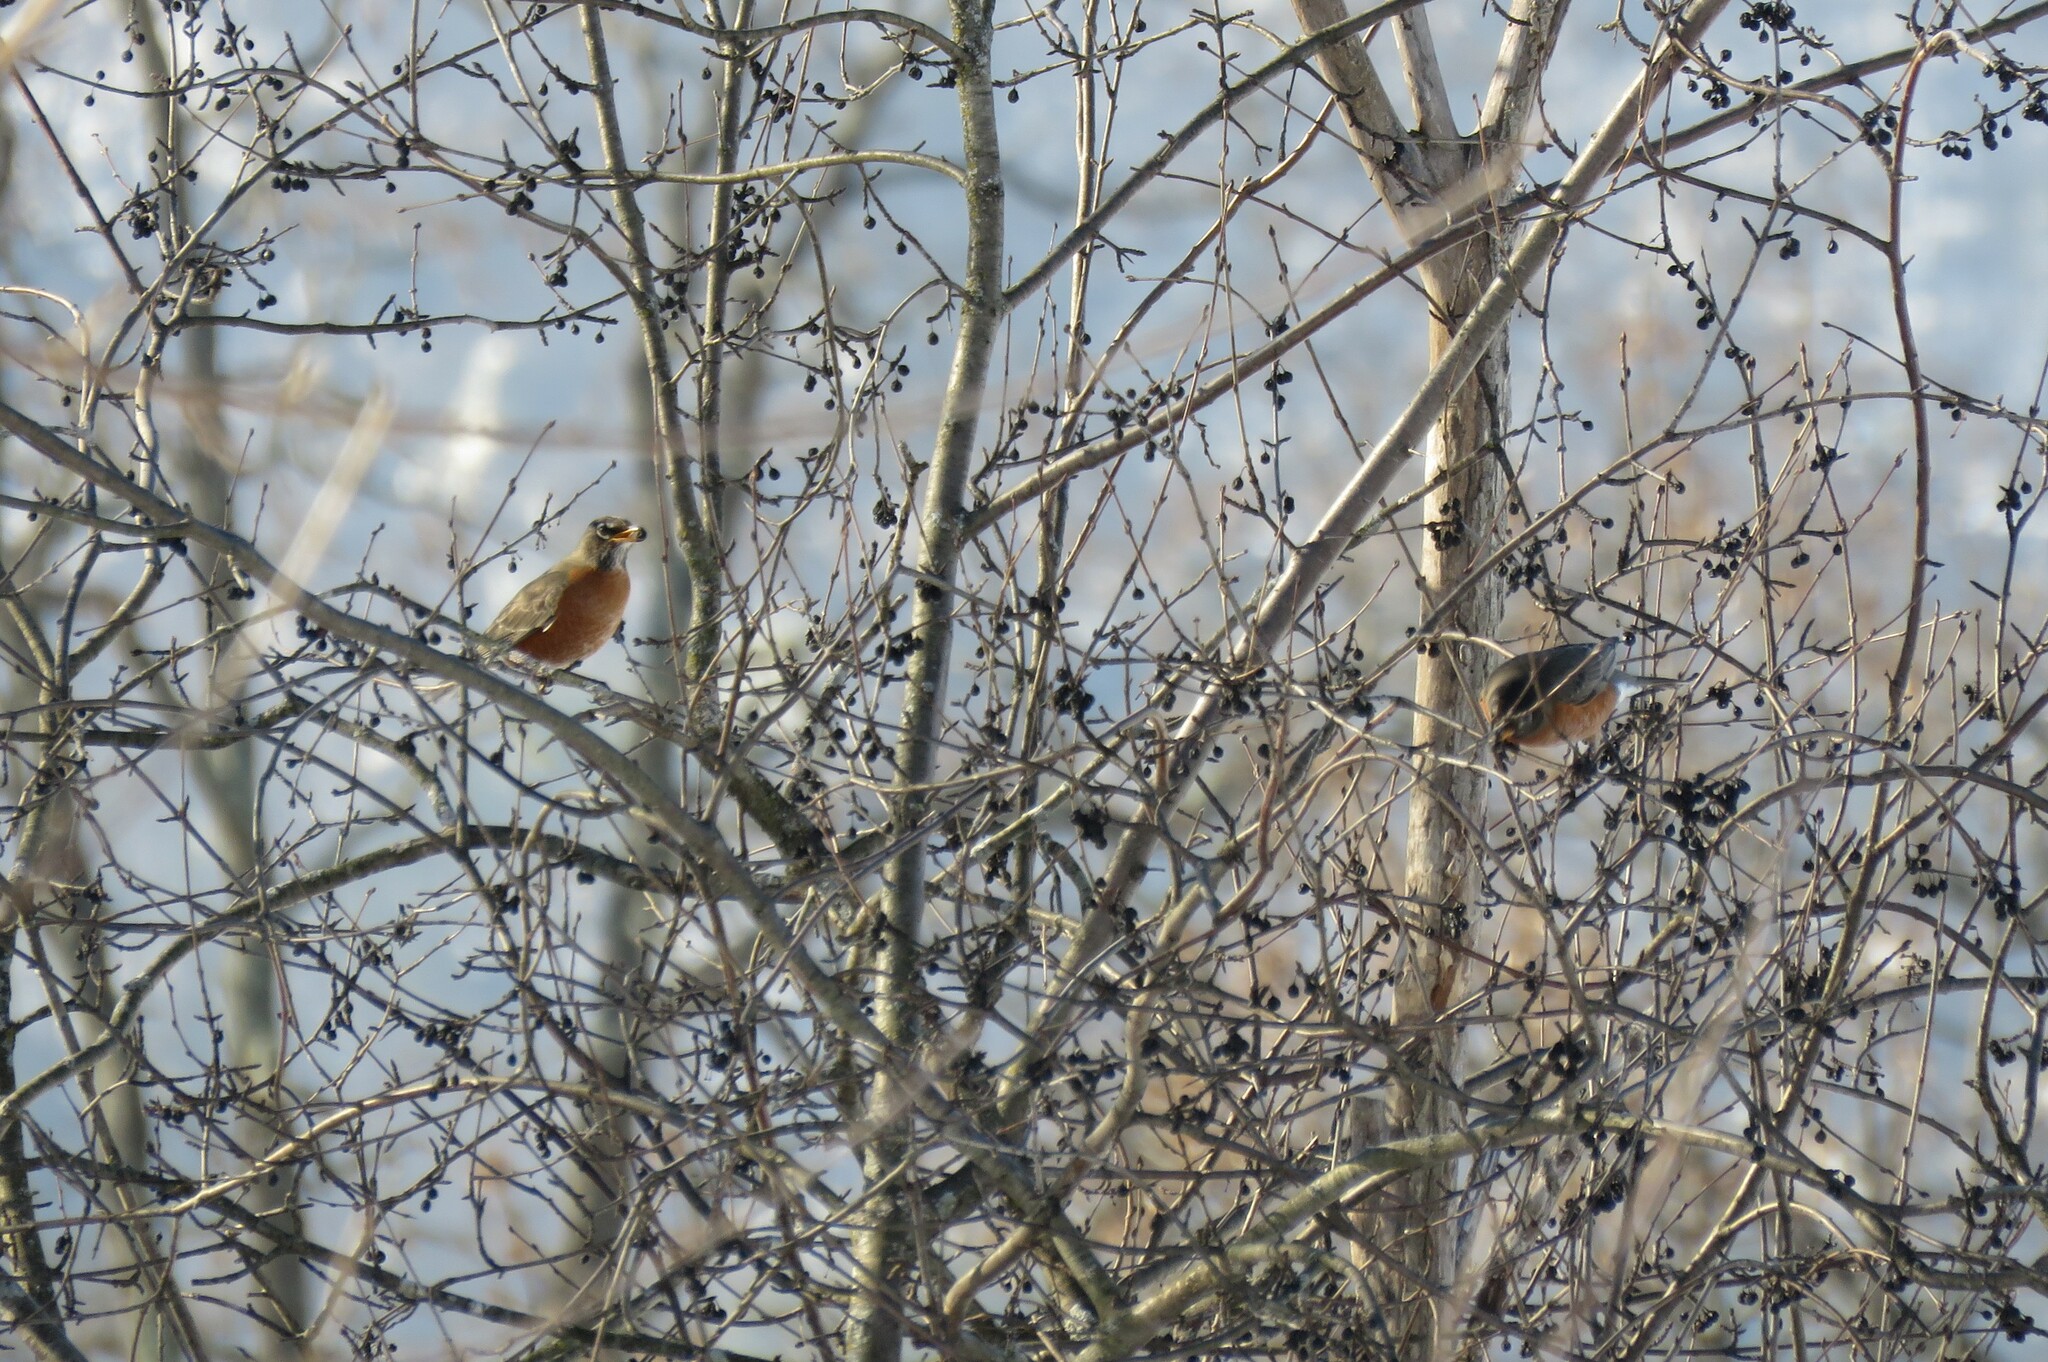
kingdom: Animalia
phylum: Chordata
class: Aves
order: Passeriformes
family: Turdidae
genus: Turdus
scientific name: Turdus migratorius
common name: American robin
